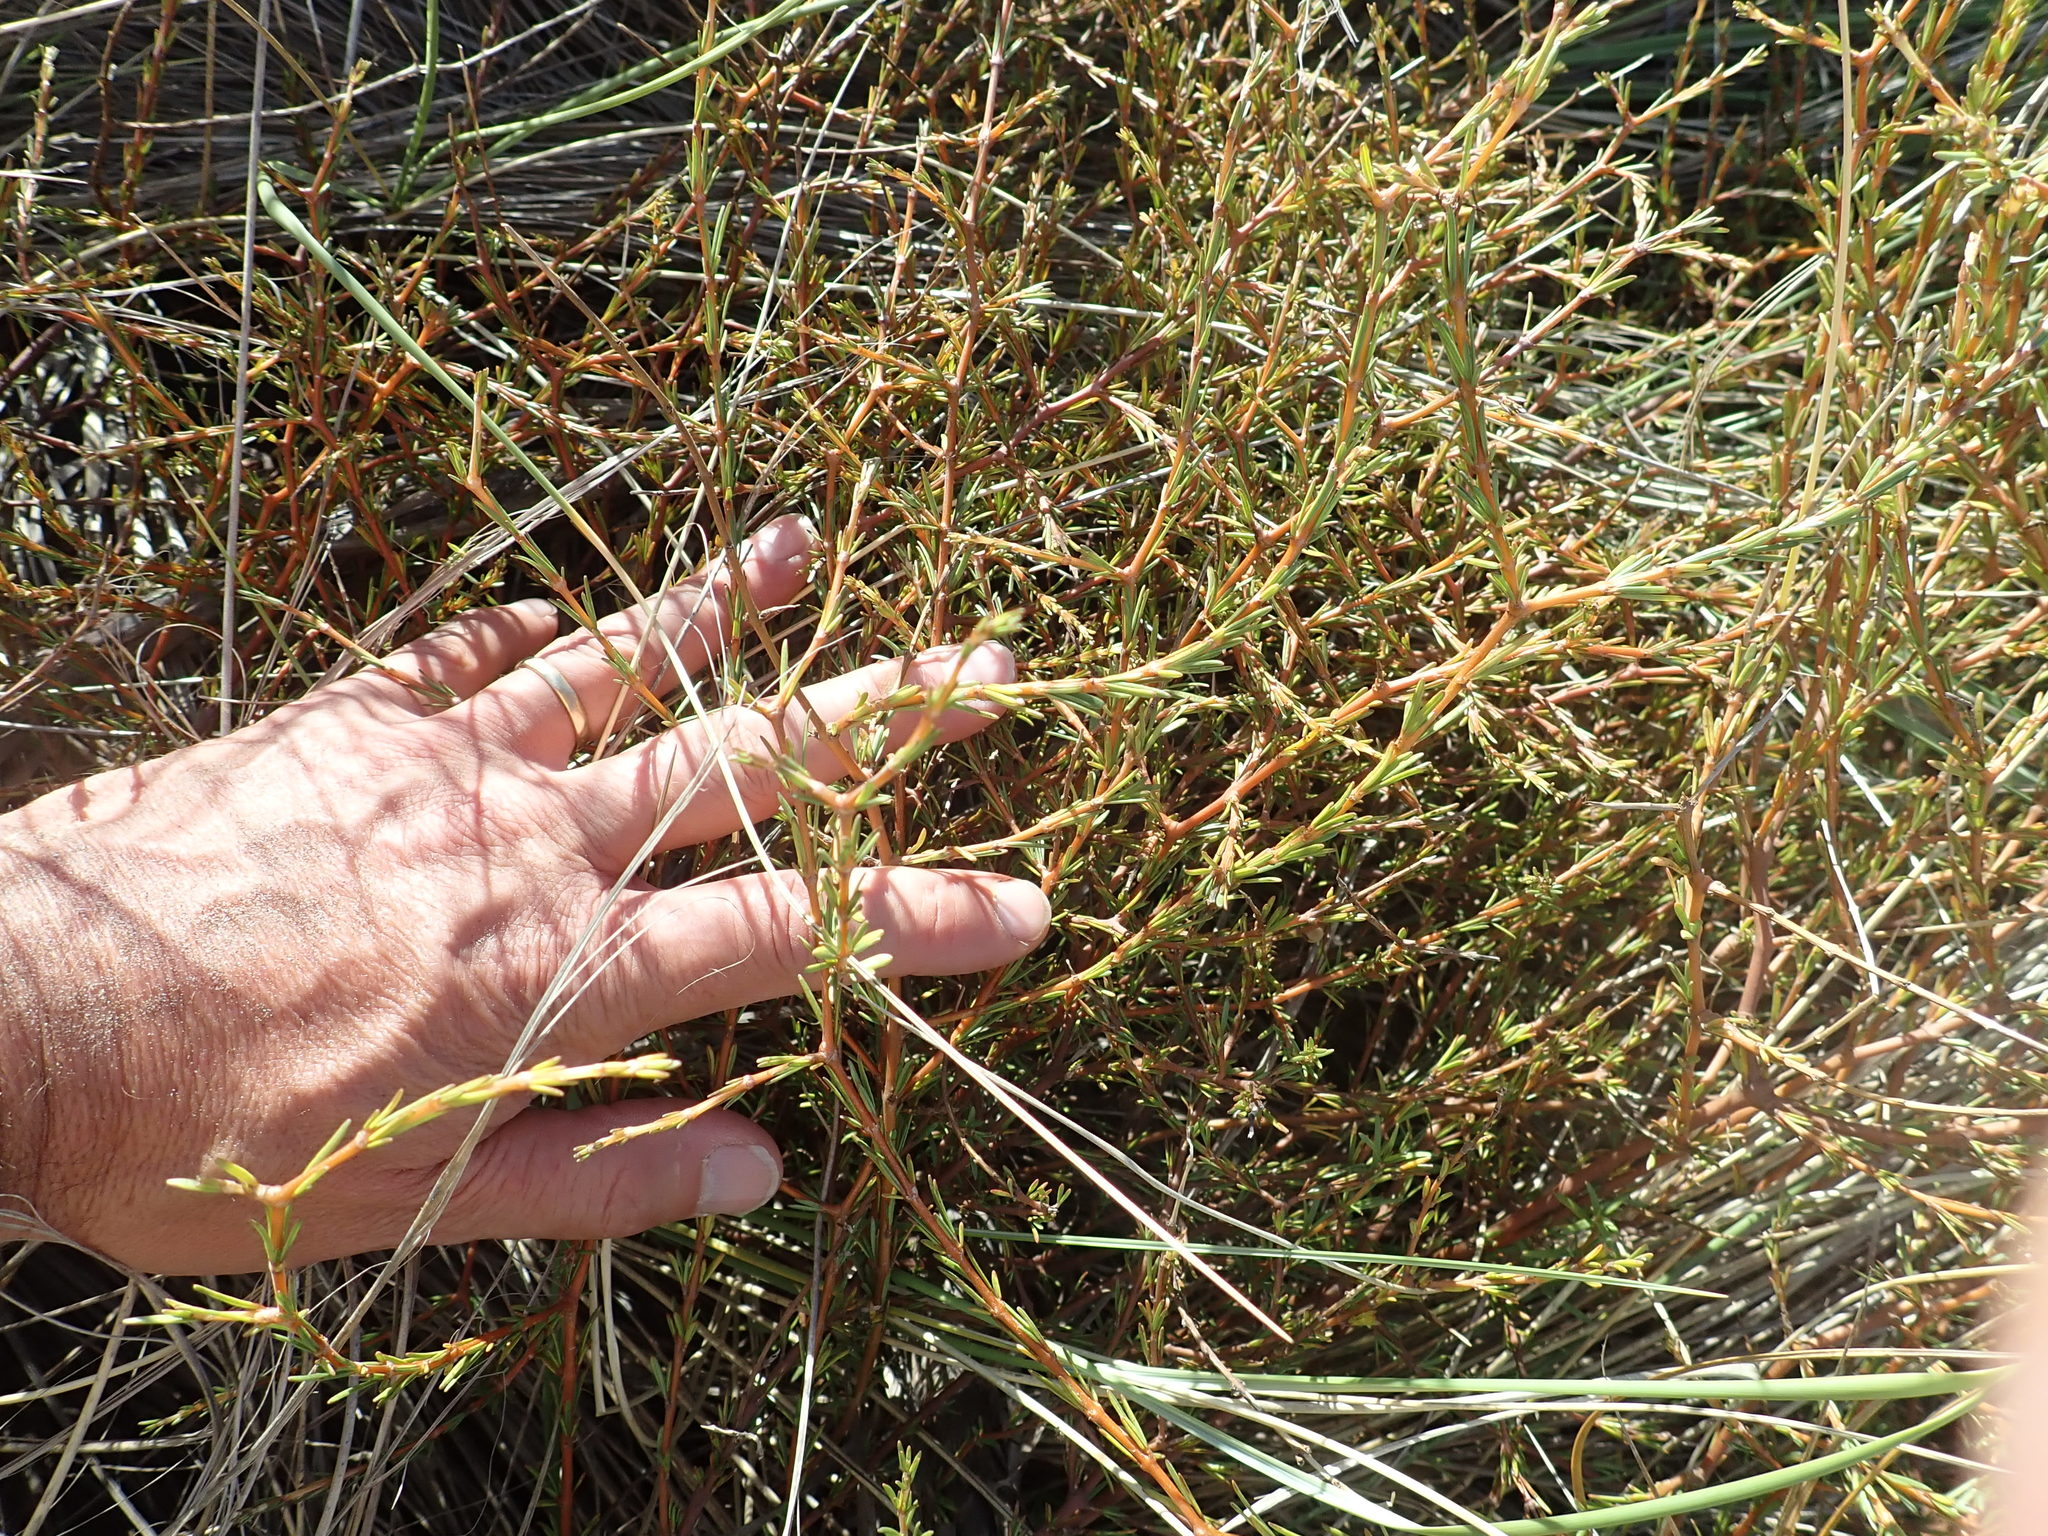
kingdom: Plantae
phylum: Tracheophyta
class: Magnoliopsida
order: Gentianales
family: Rubiaceae
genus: Coprosma
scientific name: Coprosma acerosa
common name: Sand coprosma
